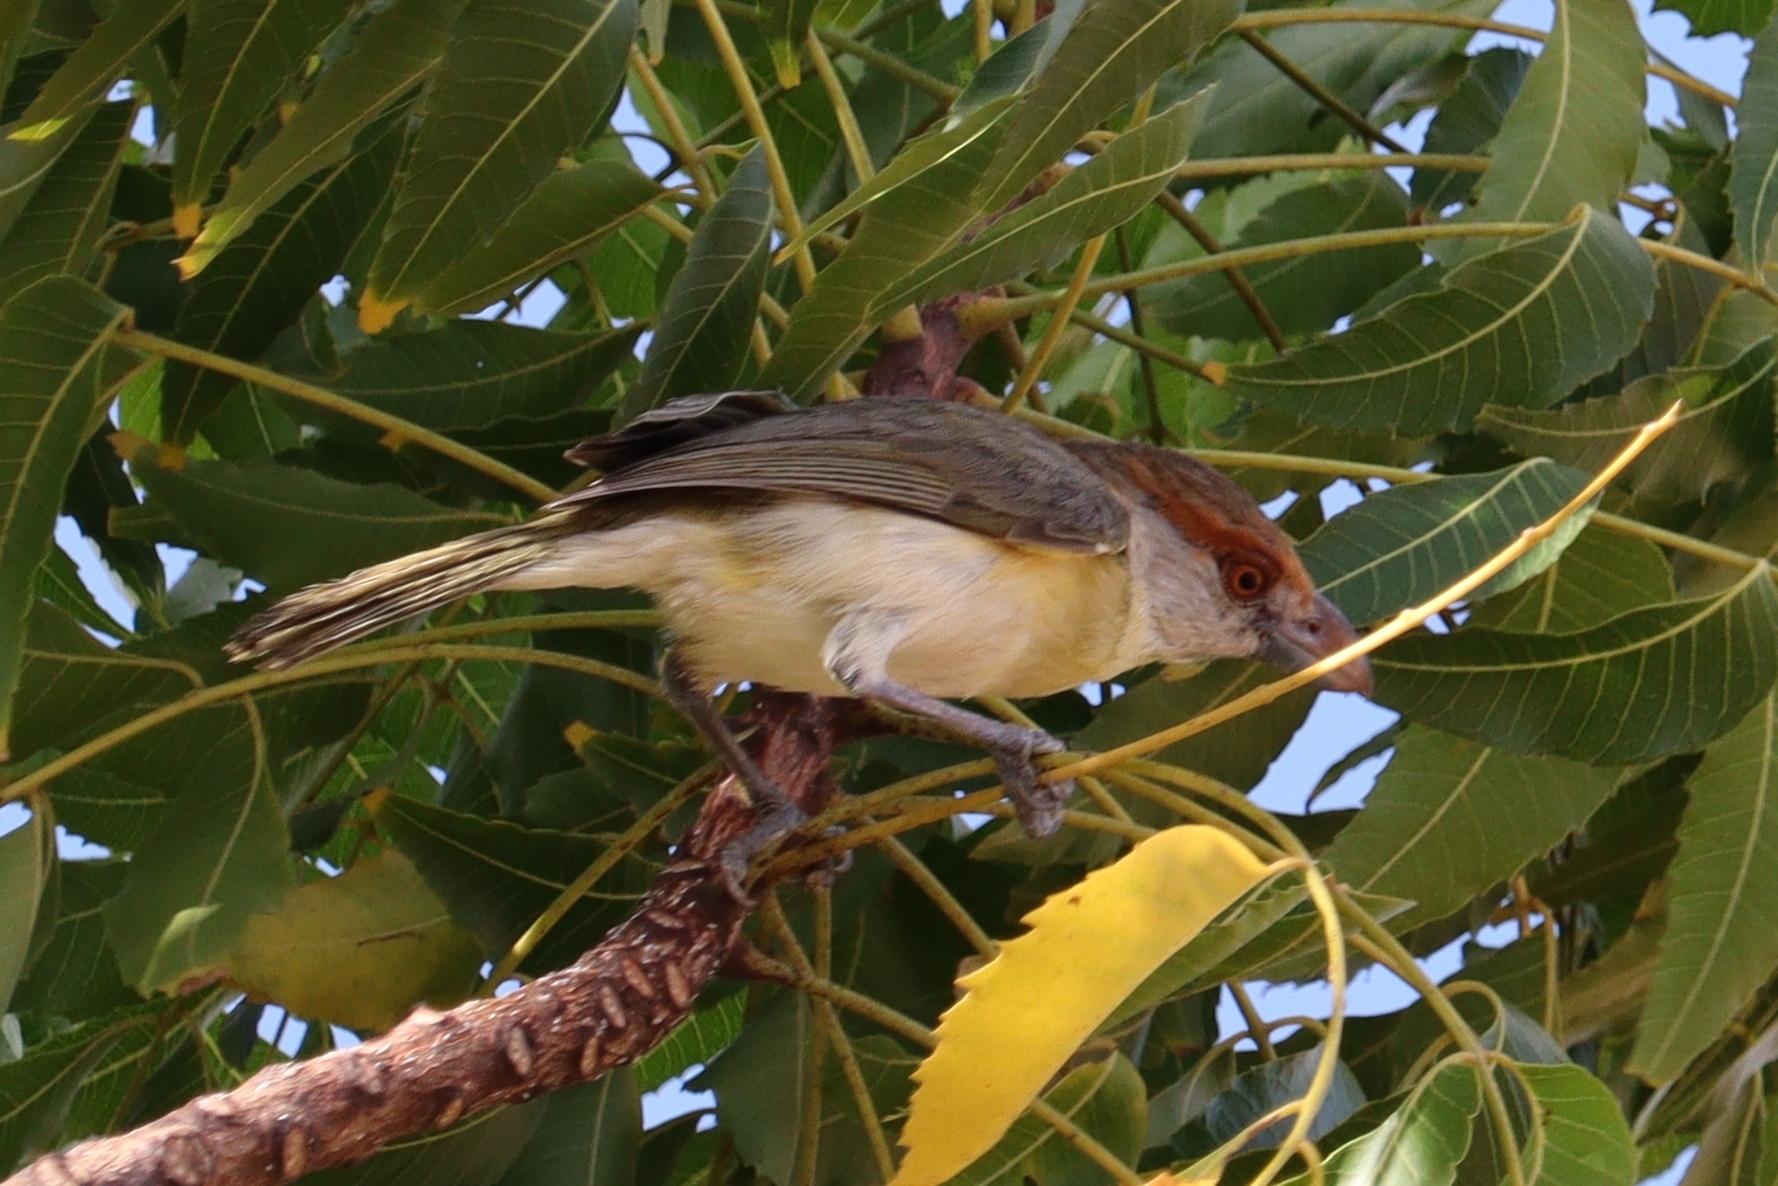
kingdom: Animalia
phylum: Chordata
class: Aves
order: Passeriformes
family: Vireonidae
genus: Cyclarhis
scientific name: Cyclarhis gujanensis
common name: Rufous-browed peppershrike
